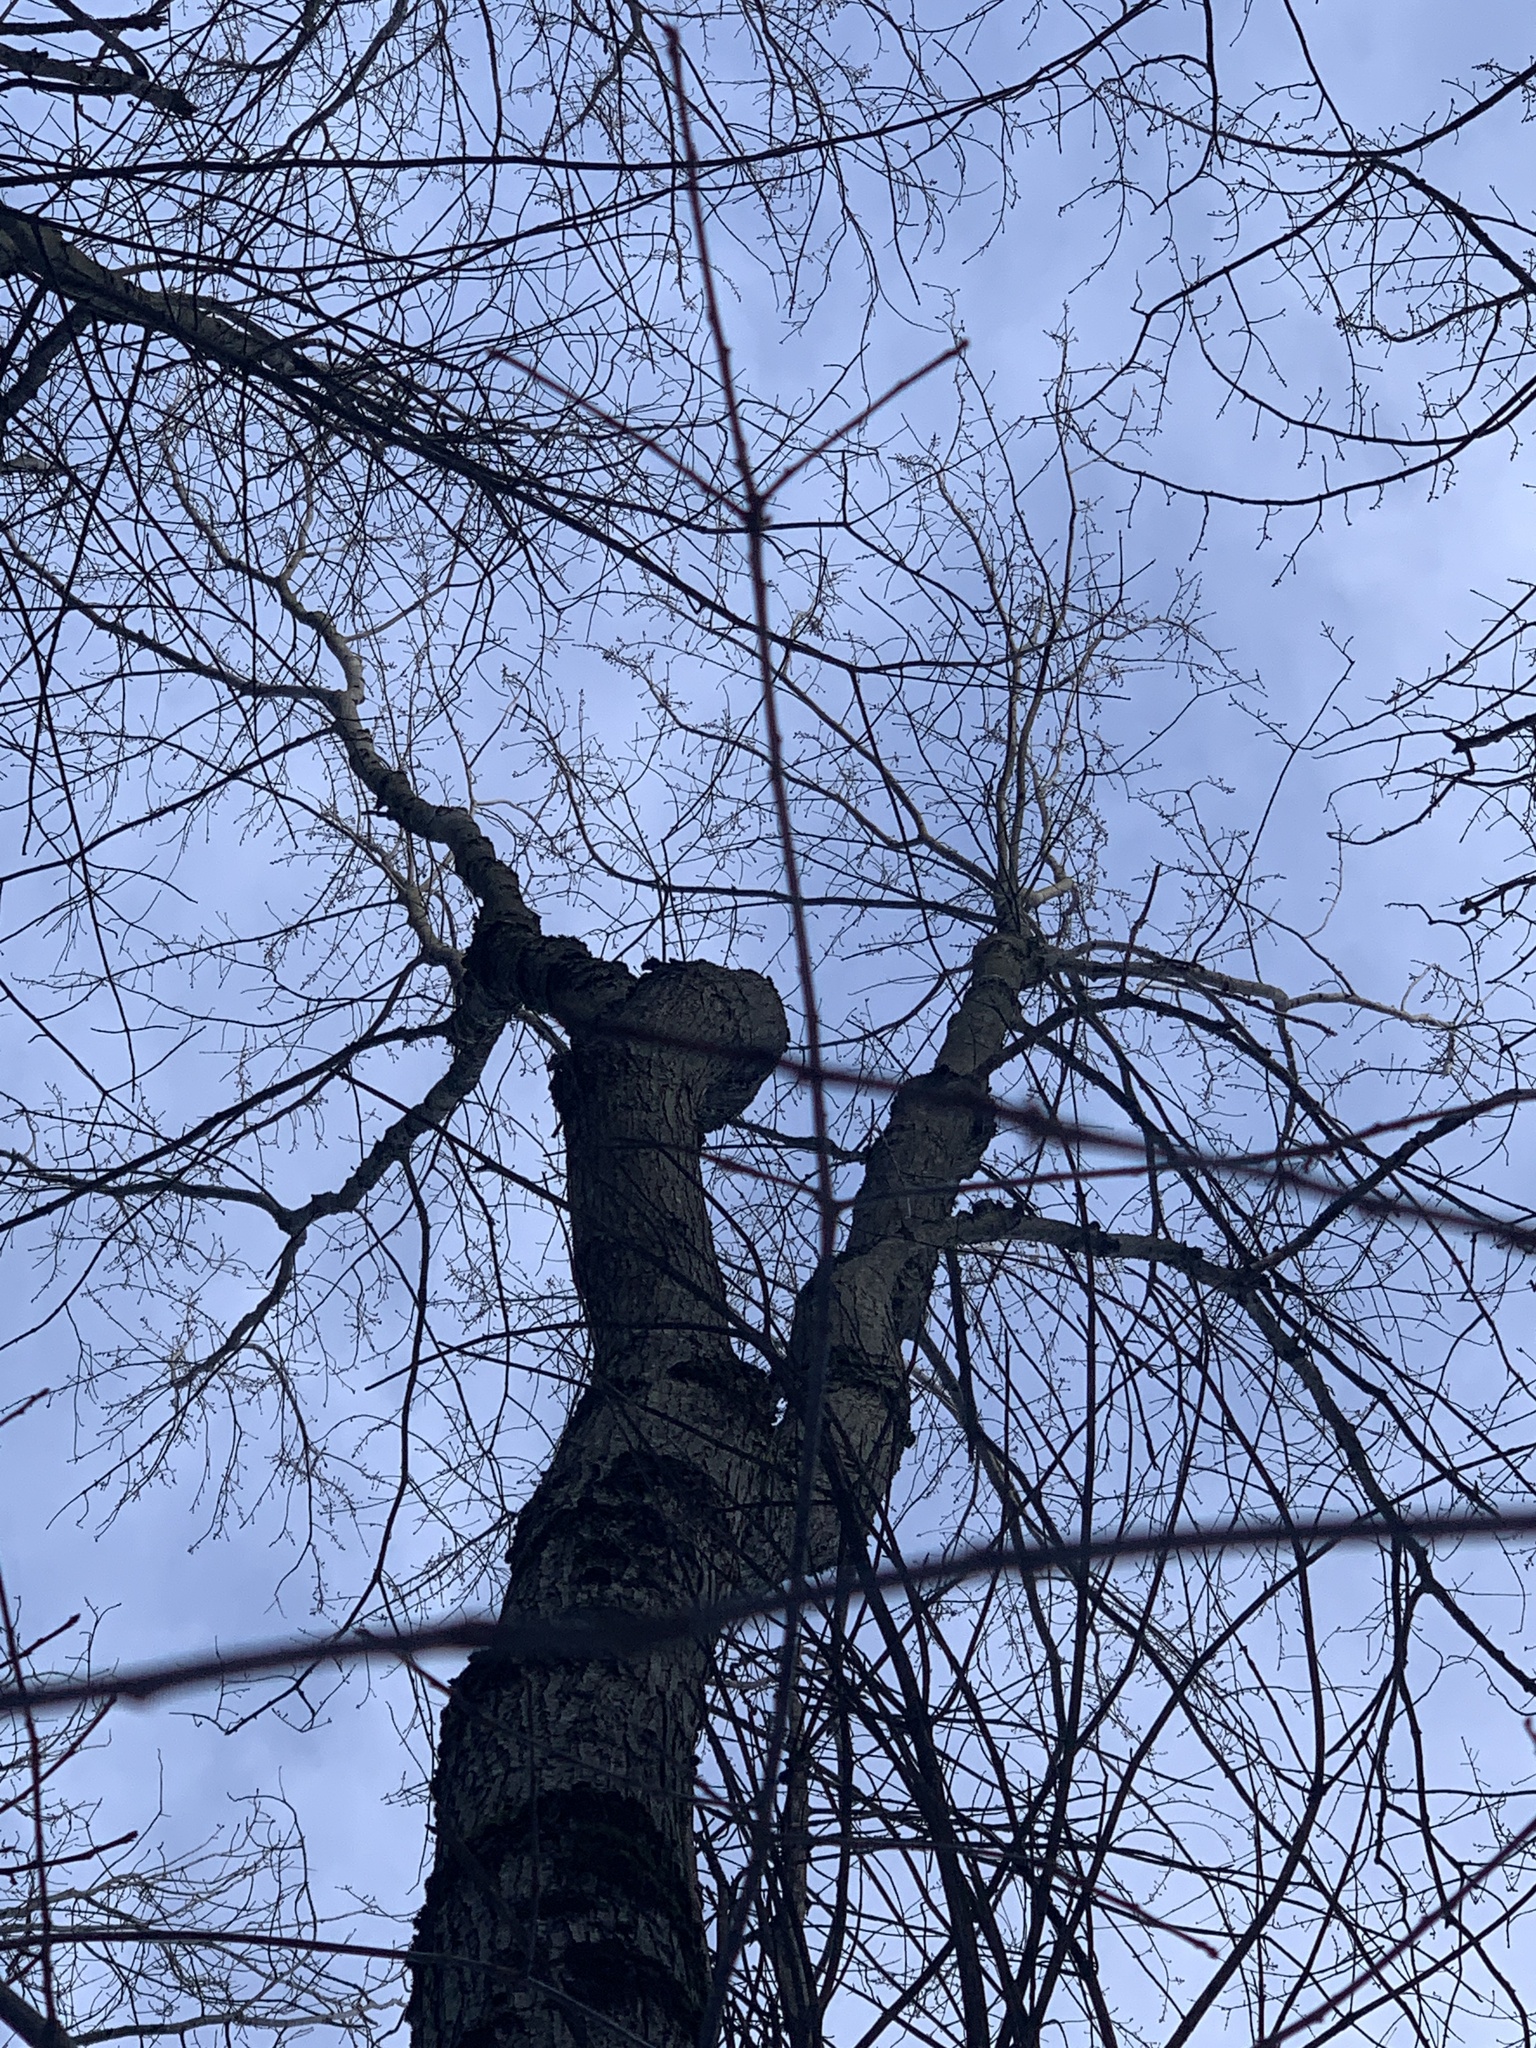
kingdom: Plantae
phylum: Tracheophyta
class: Magnoliopsida
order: Sapindales
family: Sapindaceae
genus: Acer
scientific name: Acer rubrum
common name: Red maple
